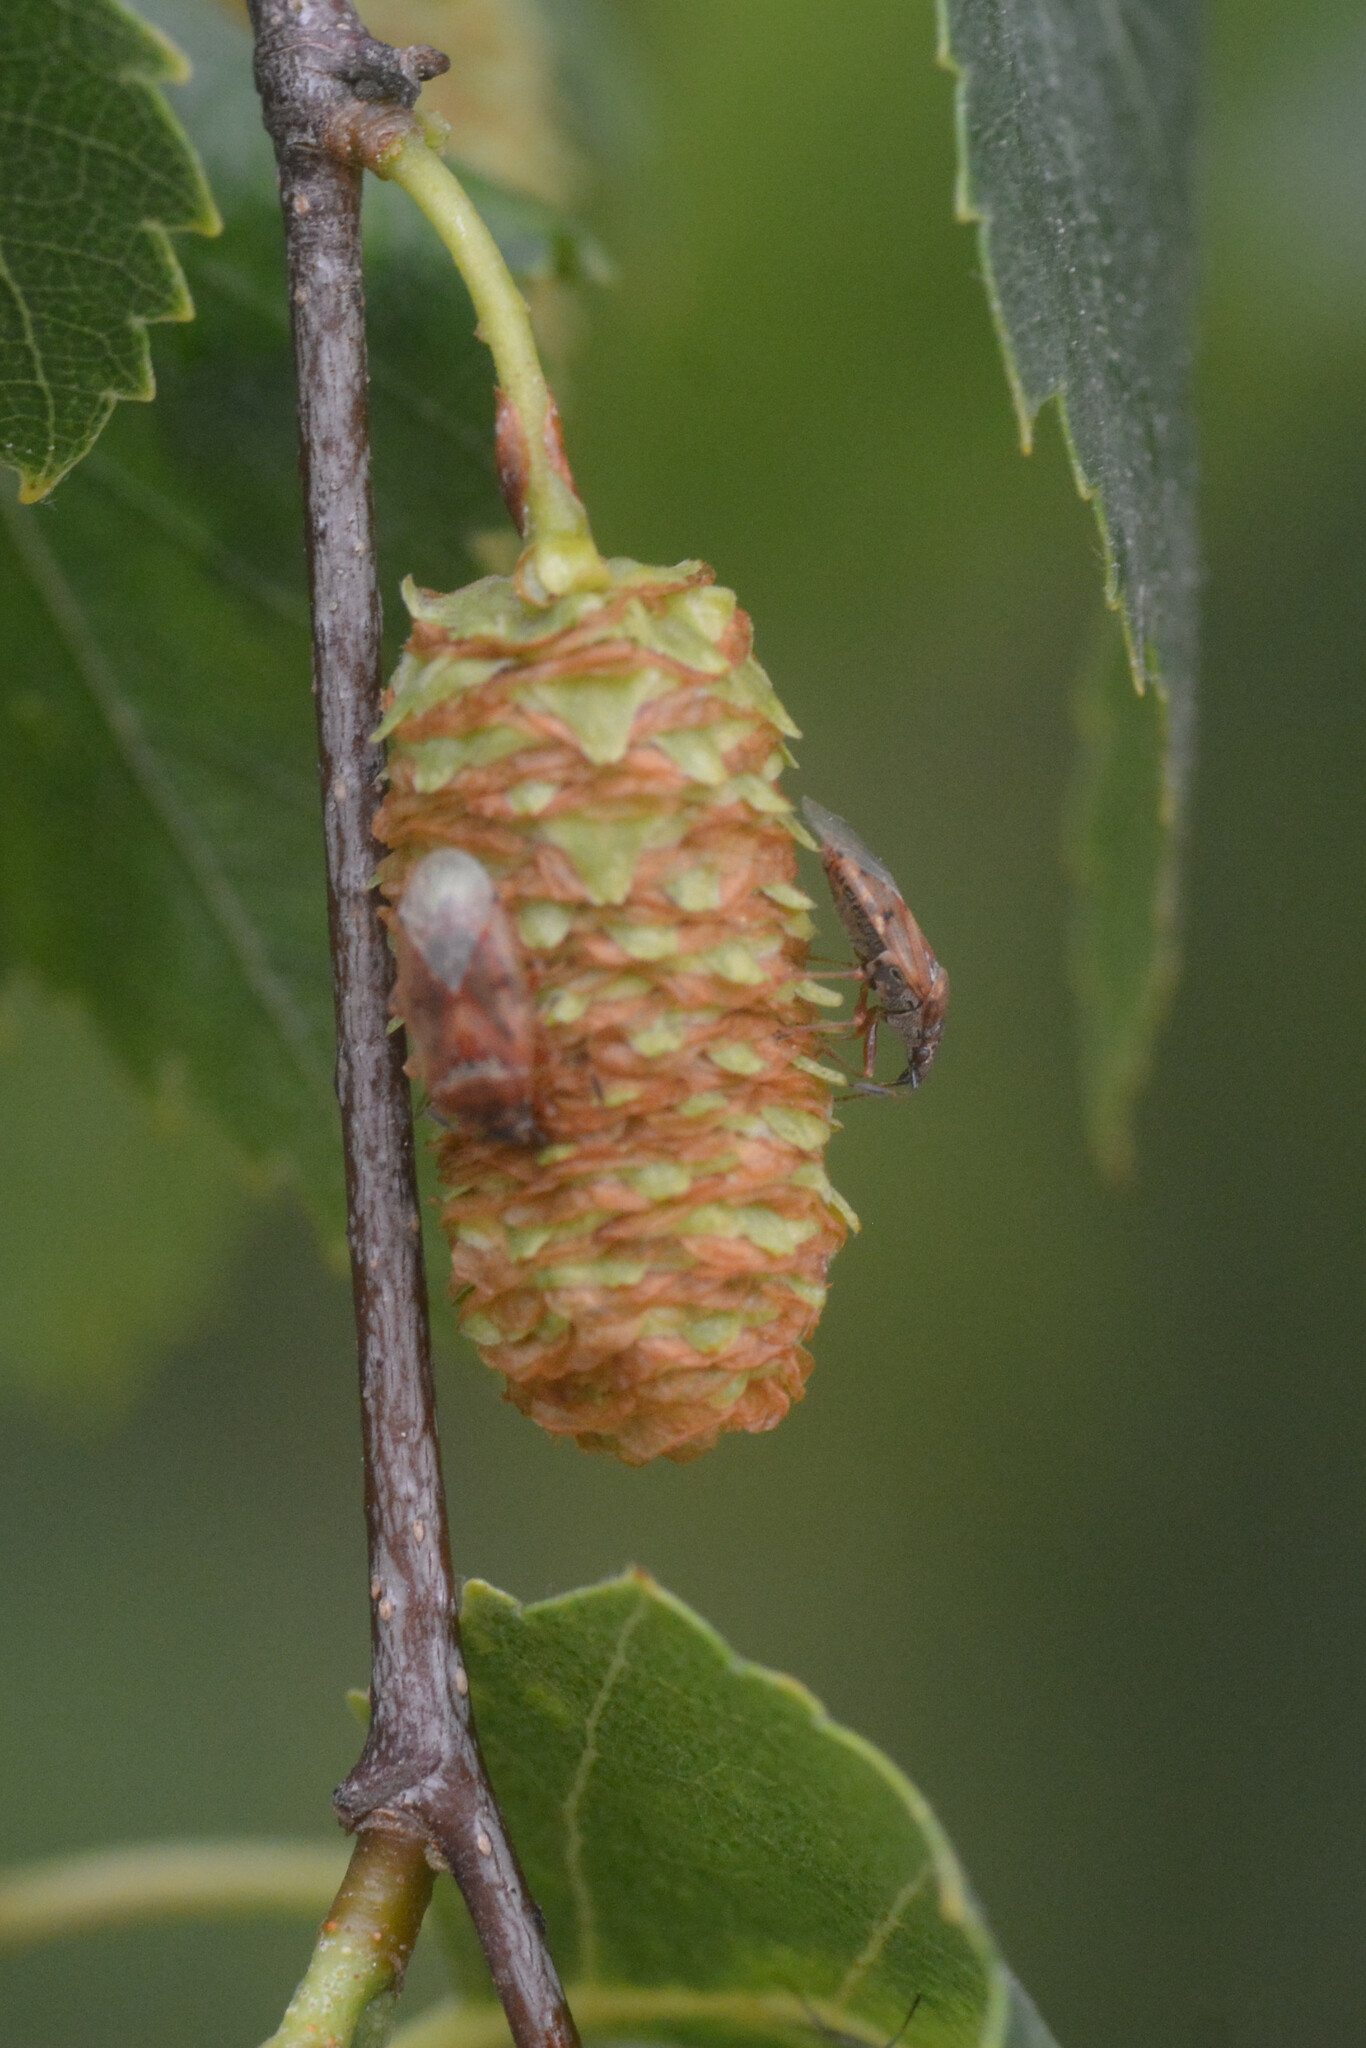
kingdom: Animalia
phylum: Arthropoda
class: Insecta
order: Hemiptera
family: Lygaeidae
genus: Kleidocerys
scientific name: Kleidocerys resedae
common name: Birch catkin bug
